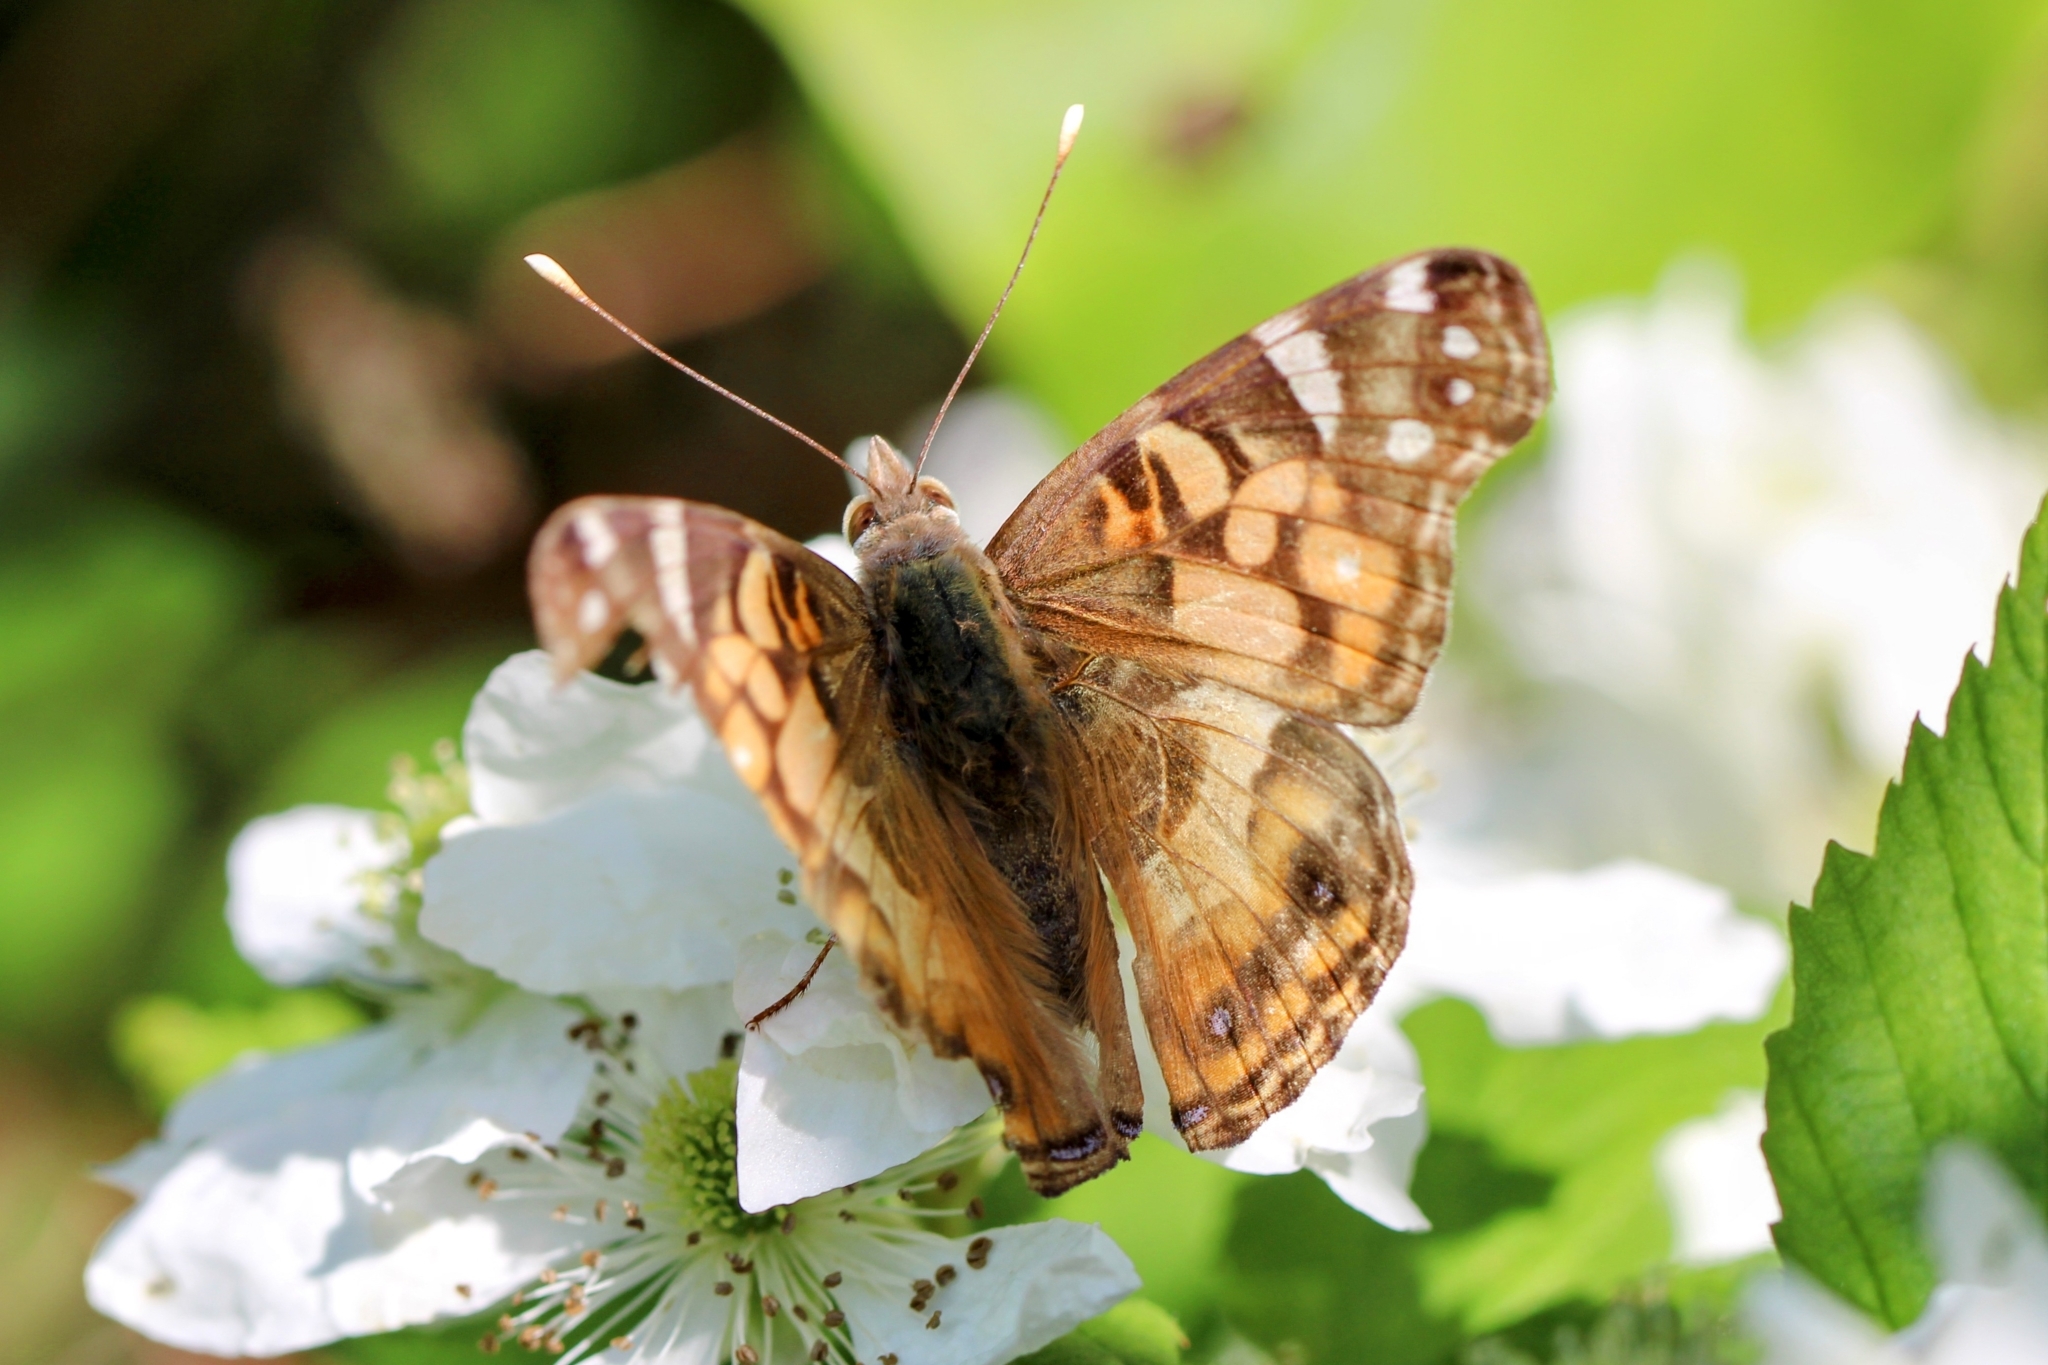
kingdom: Animalia
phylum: Arthropoda
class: Insecta
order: Lepidoptera
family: Nymphalidae
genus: Vanessa
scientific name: Vanessa virginiensis
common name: American lady
